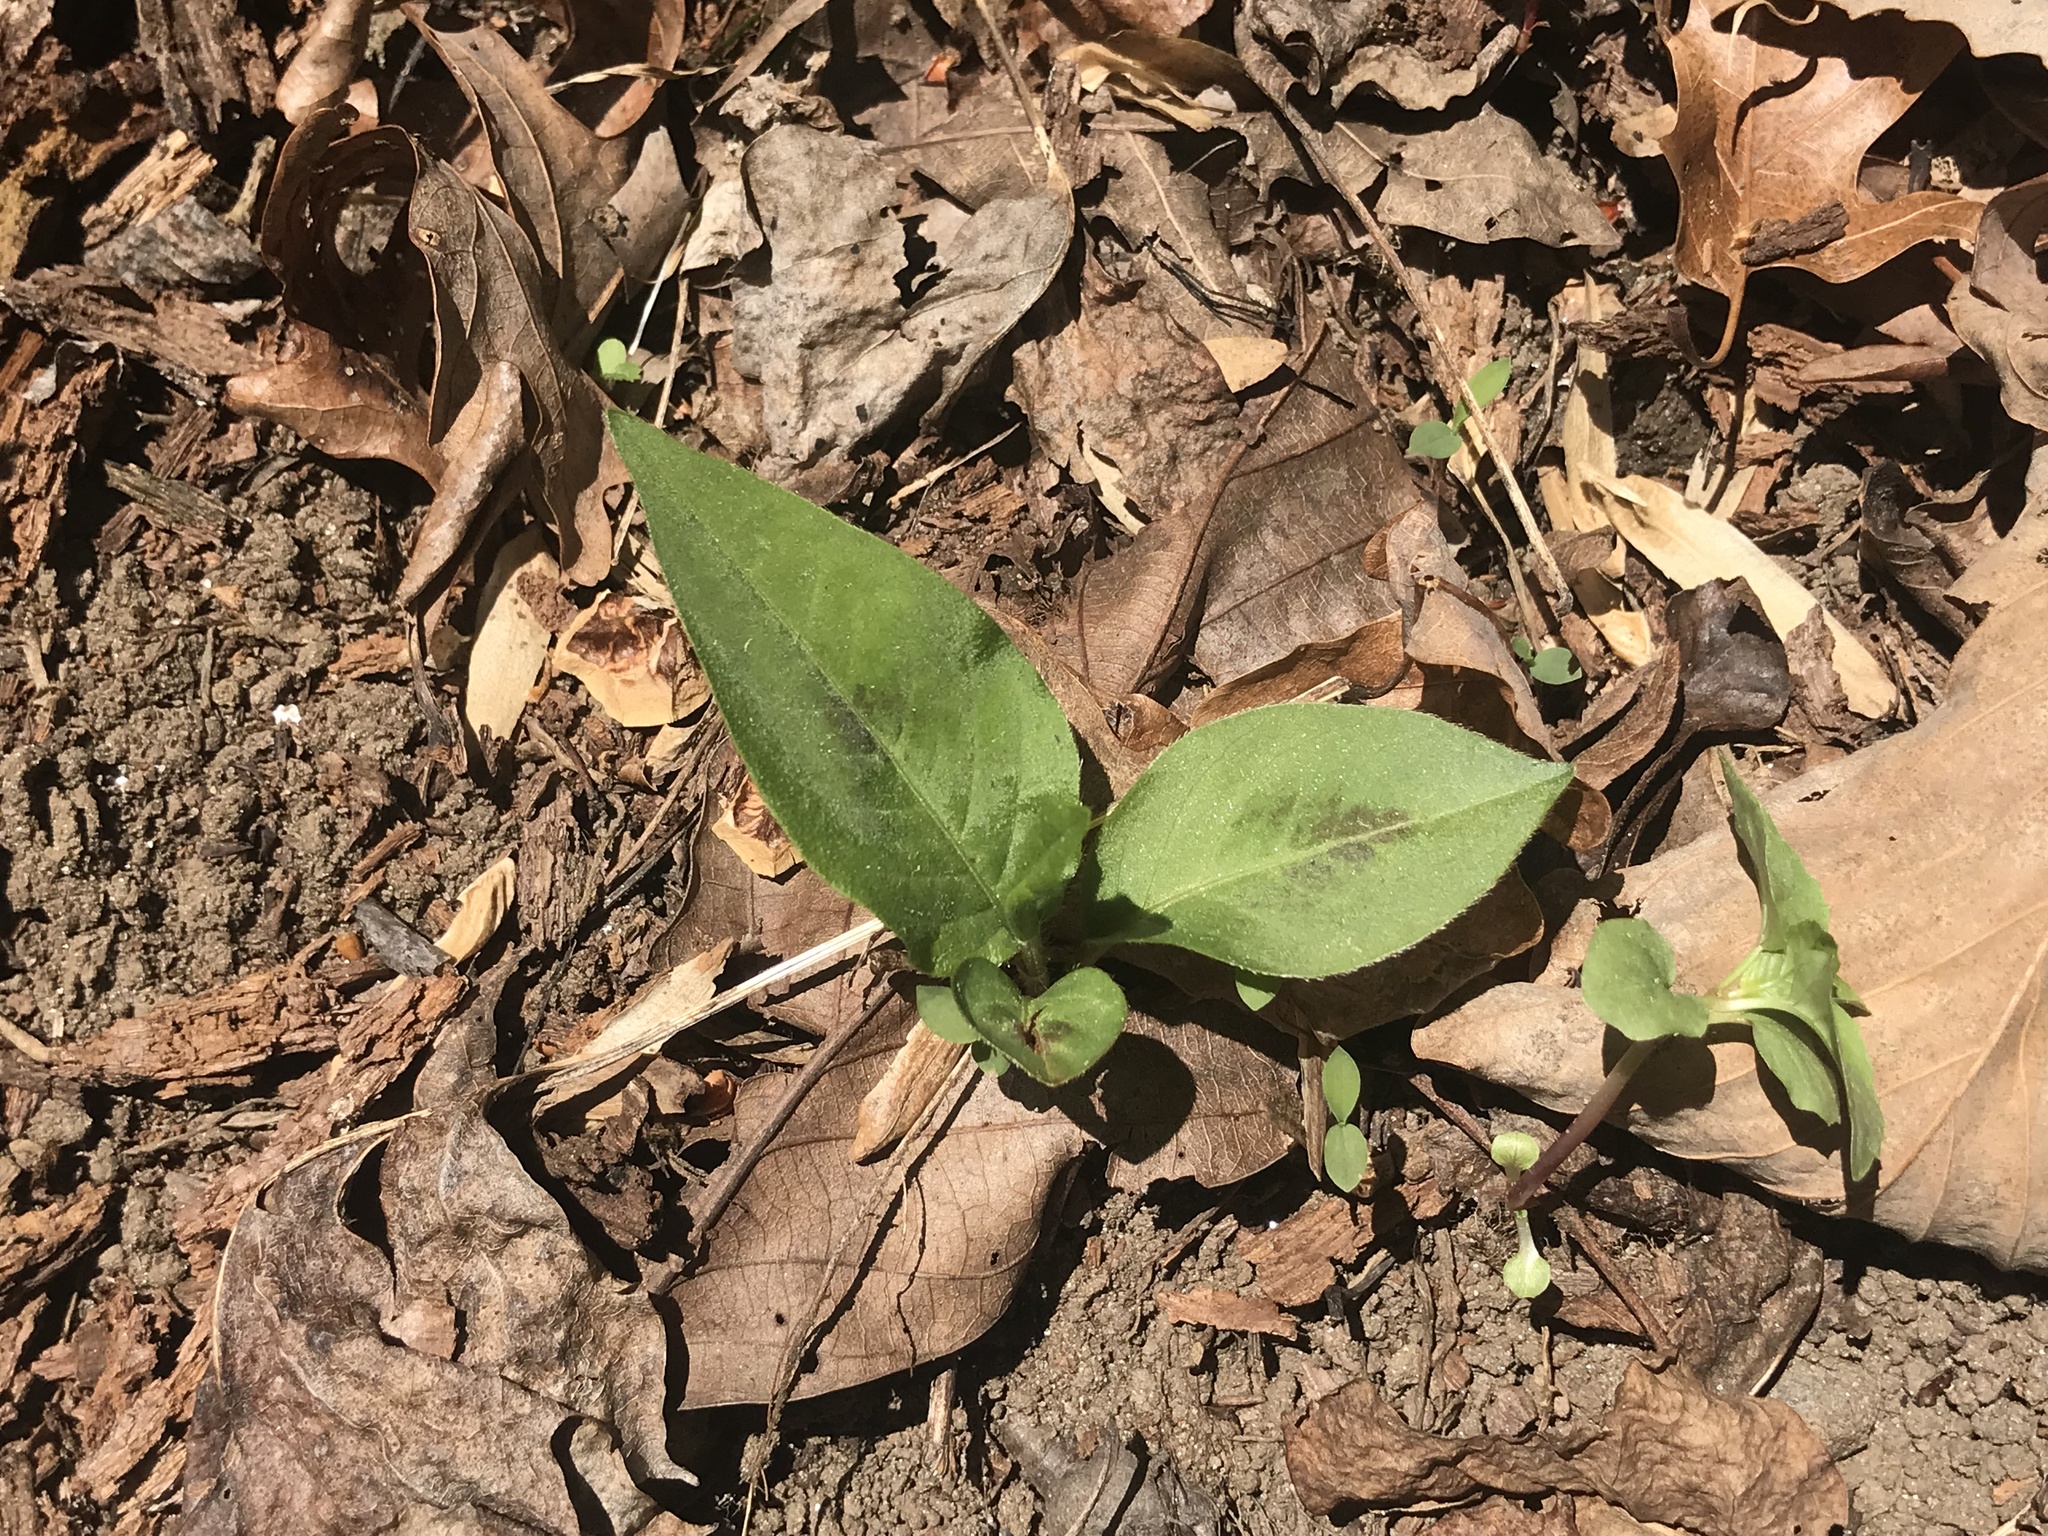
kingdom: Plantae
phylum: Tracheophyta
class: Magnoliopsida
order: Caryophyllales
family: Polygonaceae
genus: Persicaria
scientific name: Persicaria virginiana
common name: Jumpseed
